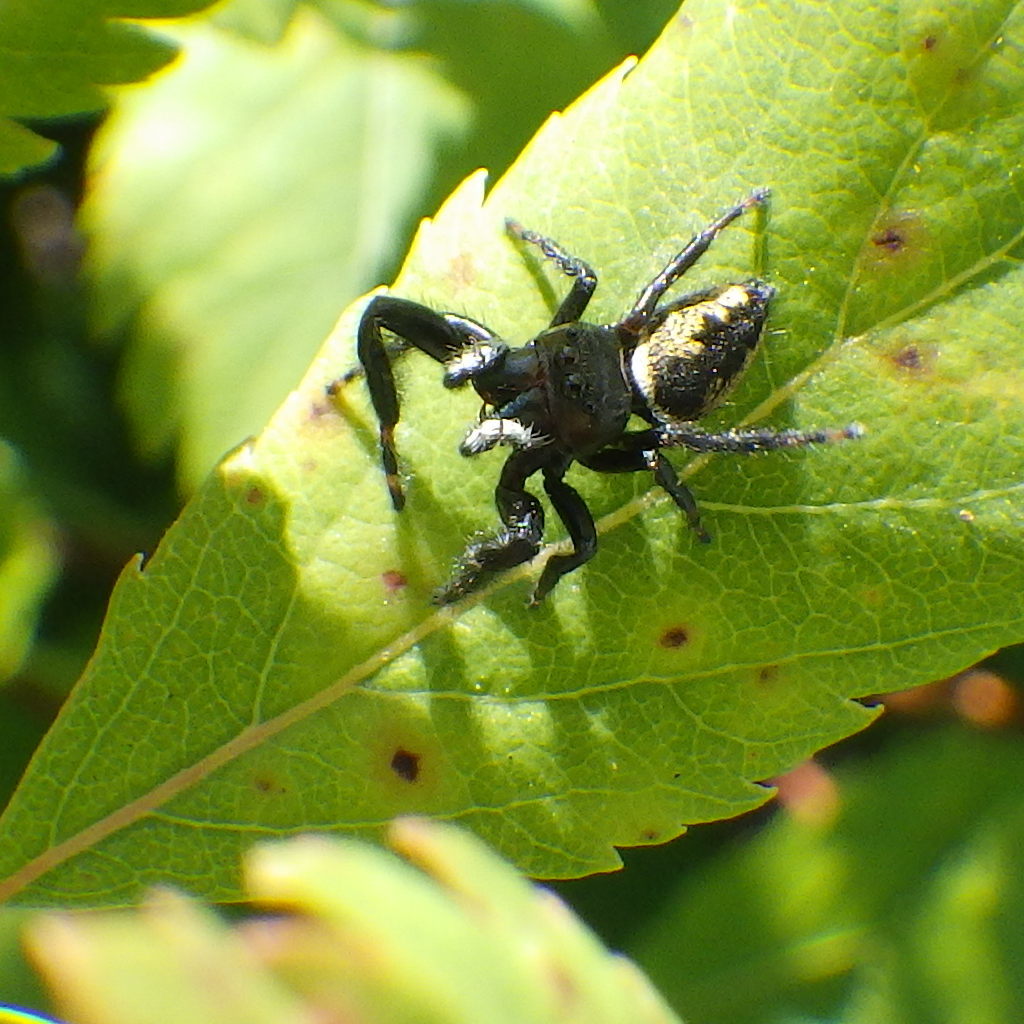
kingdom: Animalia
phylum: Arthropoda
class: Arachnida
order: Araneae
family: Salticidae
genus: Phidippus
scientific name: Phidippus clarus
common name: Brilliant jumping spider
